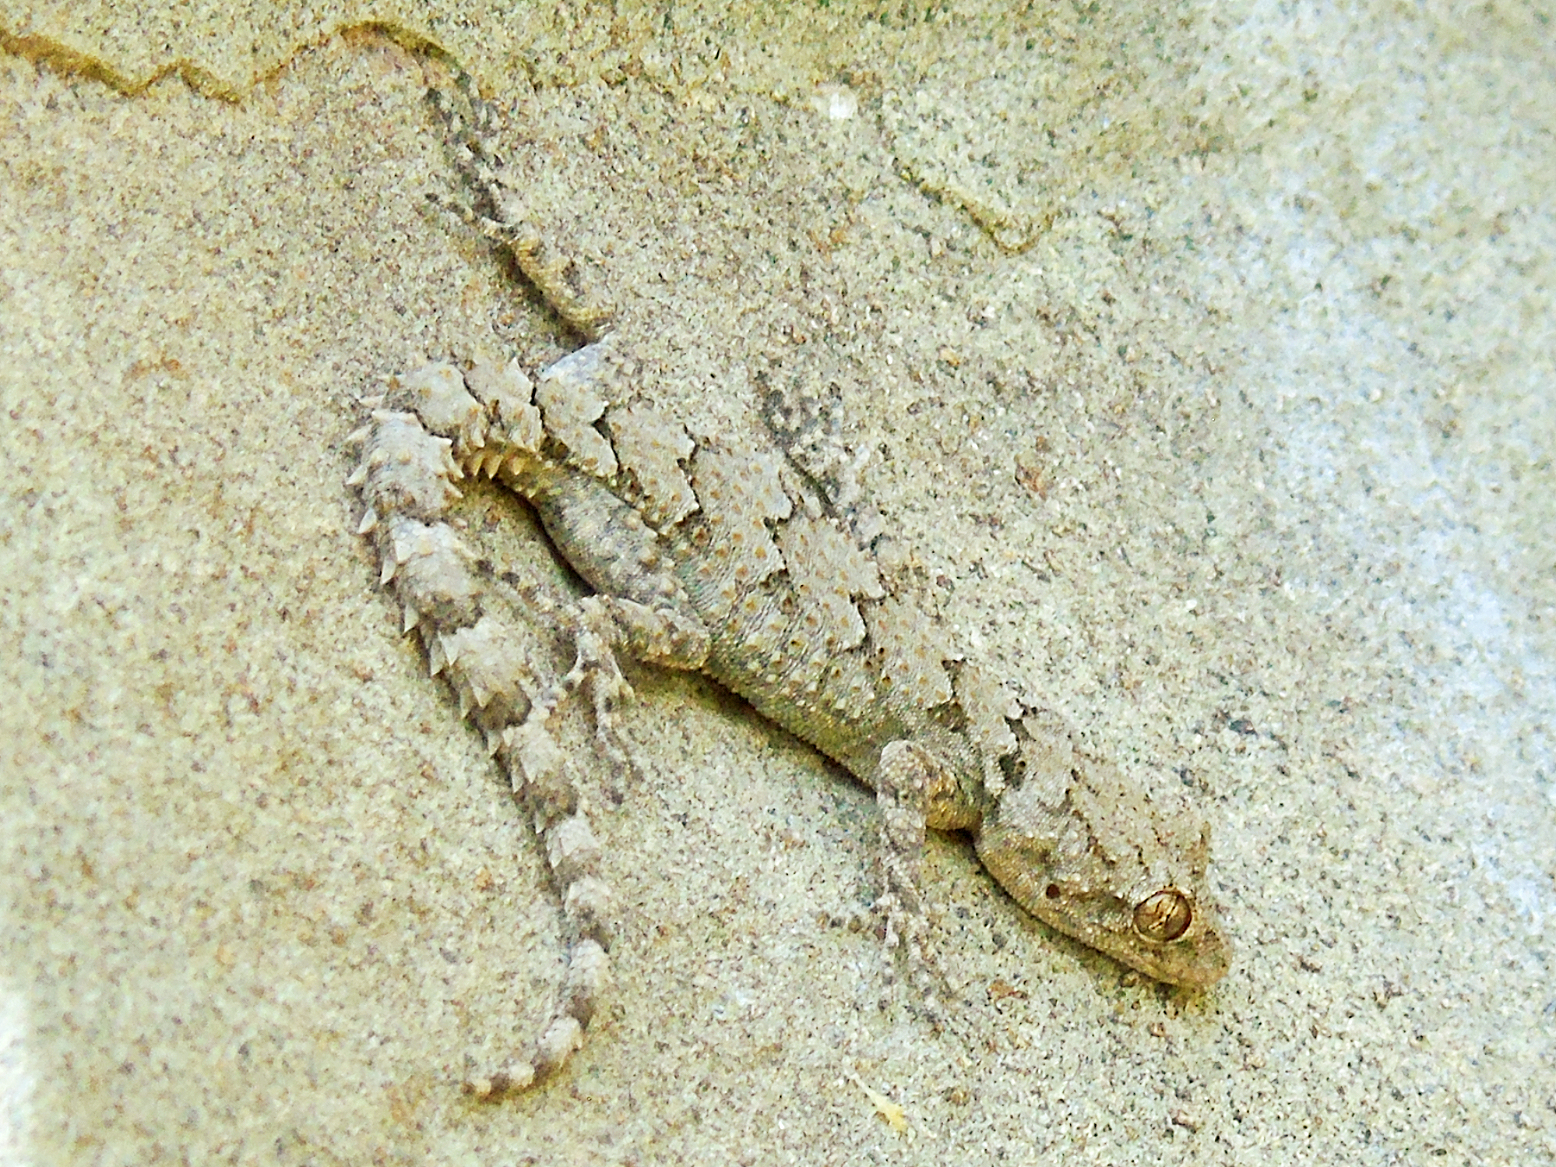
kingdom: Animalia
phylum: Chordata
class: Squamata
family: Gekkonidae
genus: Mediodactylus
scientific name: Mediodactylus heterocercus
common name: Asia minor thin-toed gecko
